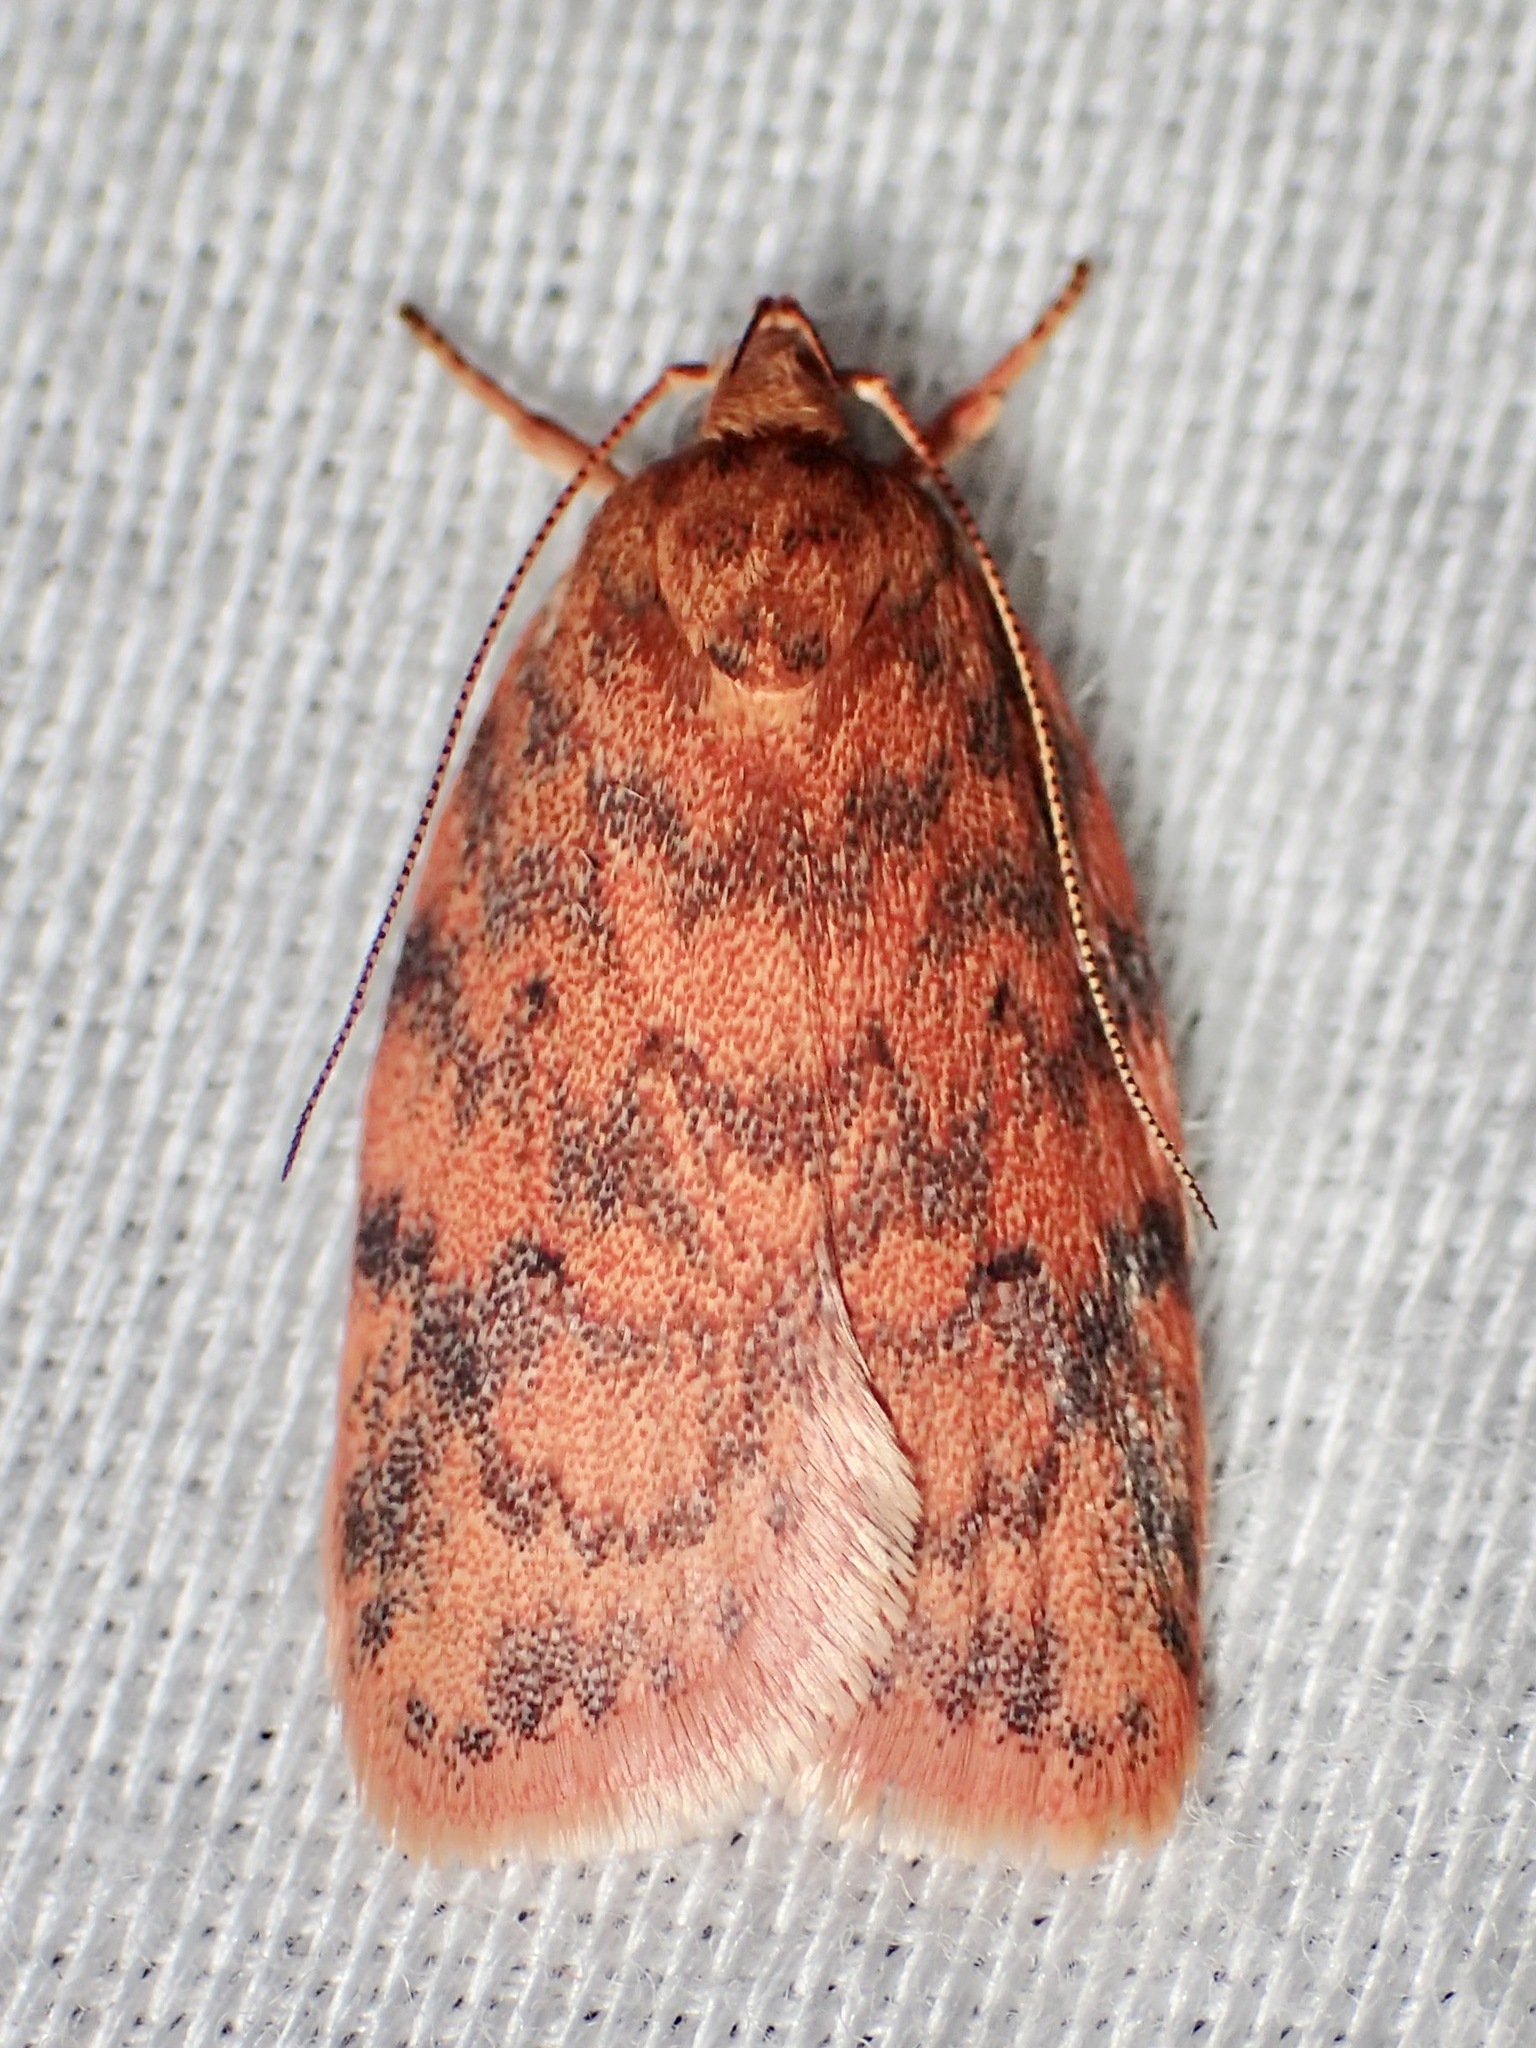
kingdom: Animalia
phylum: Arthropoda
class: Insecta
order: Lepidoptera
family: Oecophoridae
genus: Garrha
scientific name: Garrha costimacula
